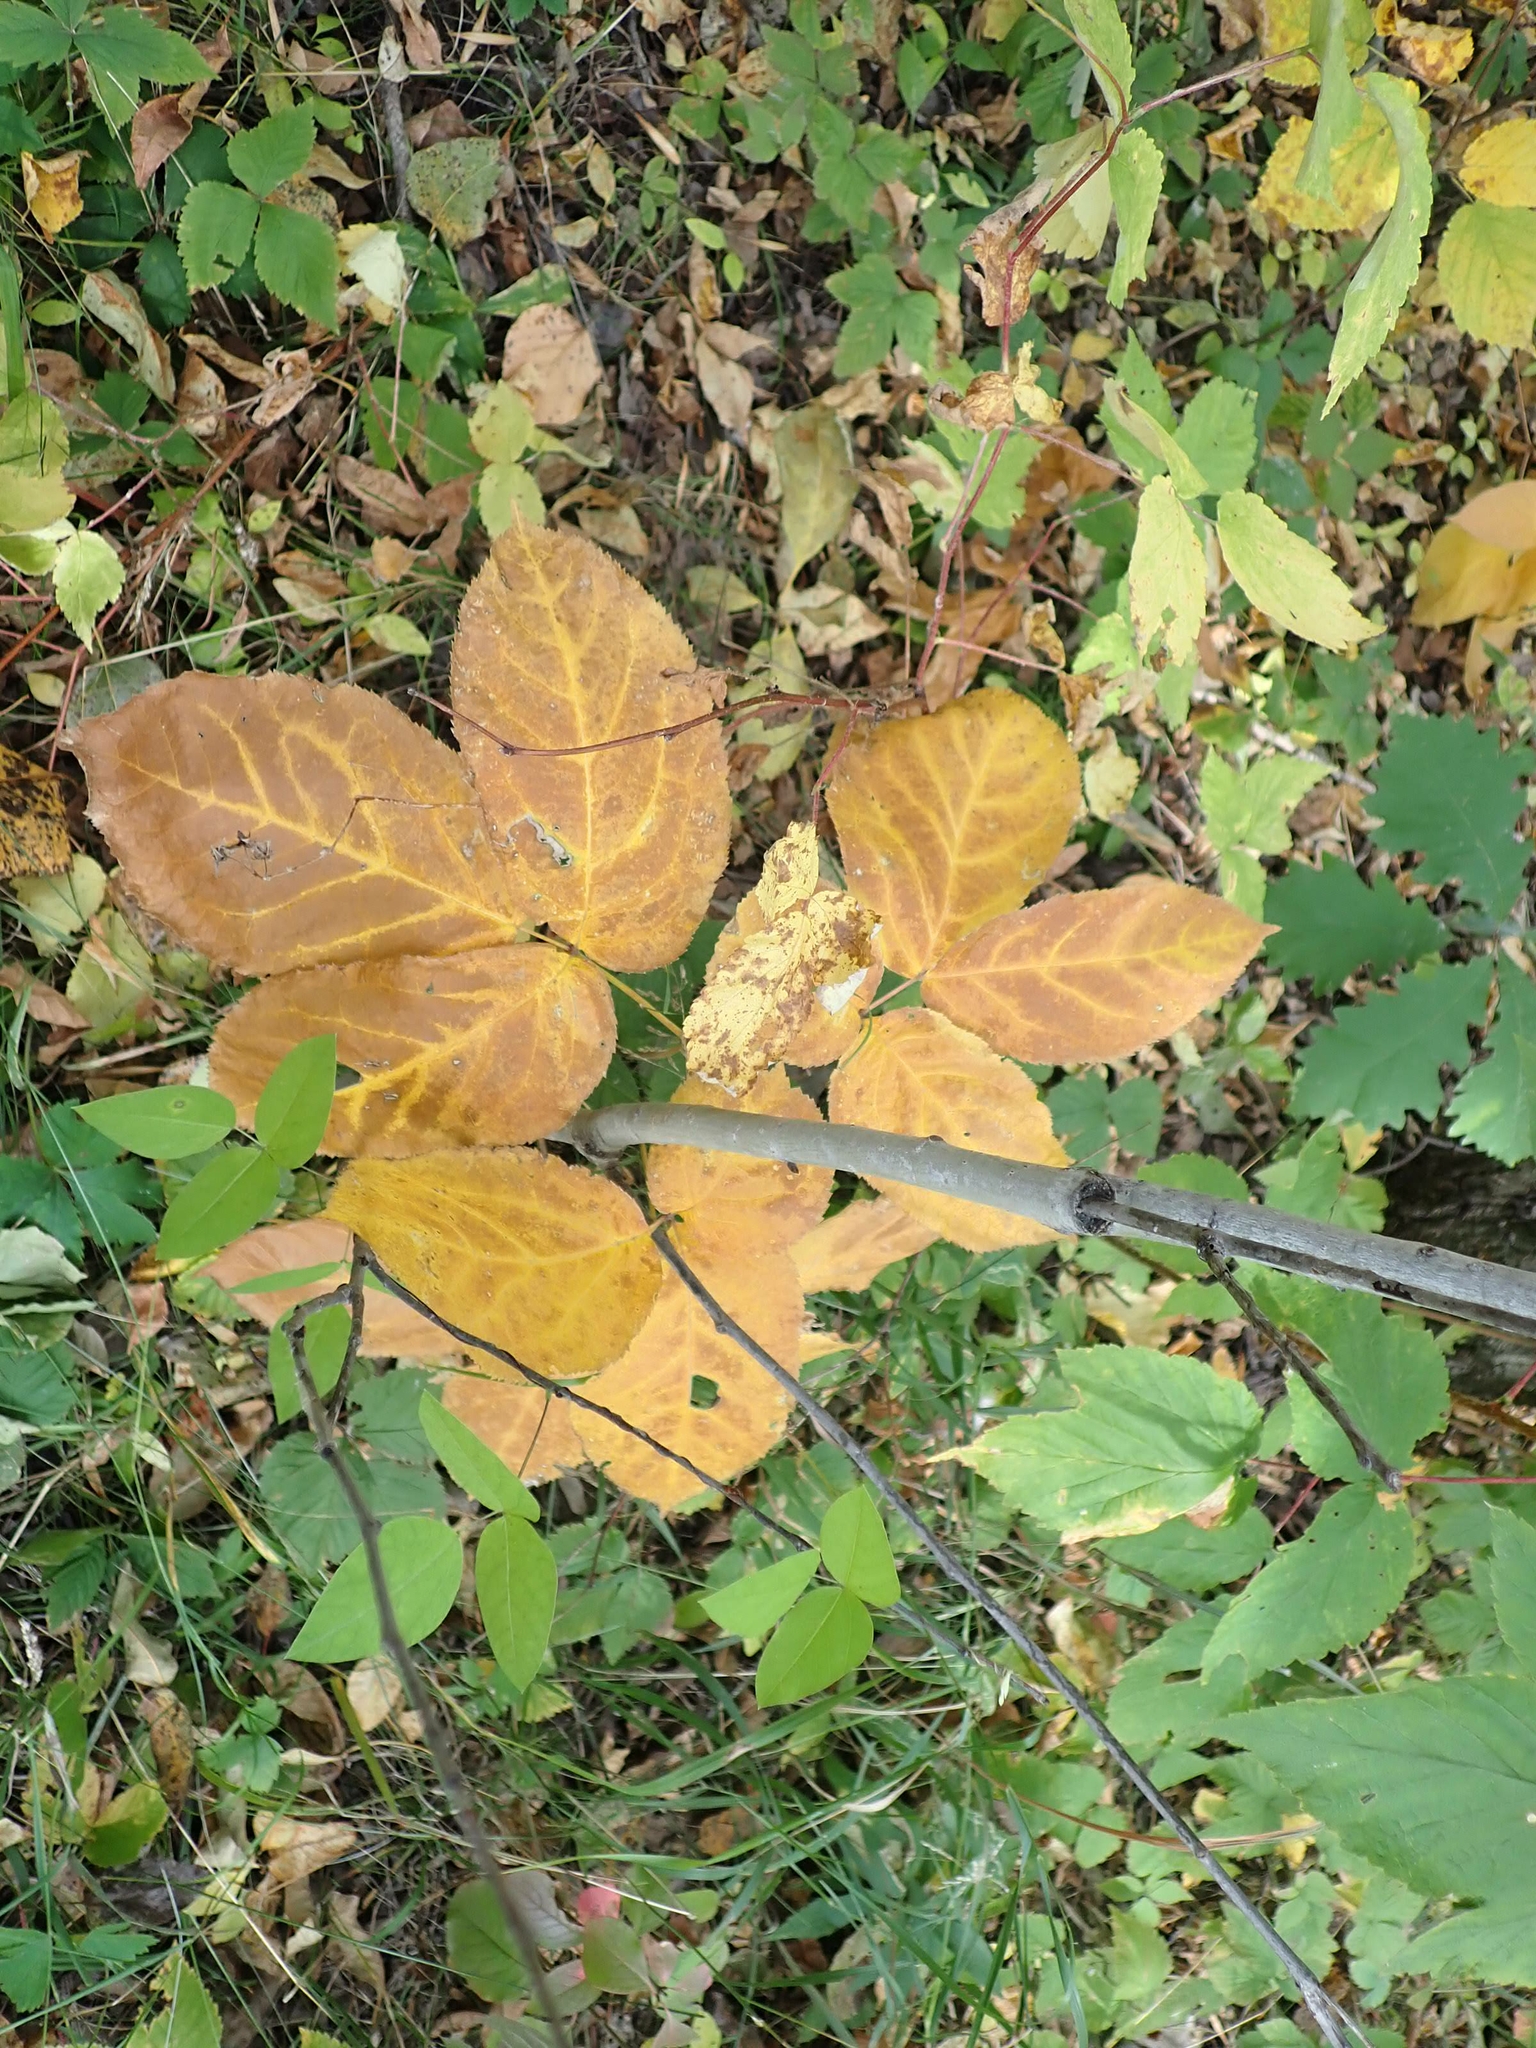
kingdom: Plantae
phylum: Tracheophyta
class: Magnoliopsida
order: Apiales
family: Araliaceae
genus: Aralia
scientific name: Aralia nudicaulis
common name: Wild sarsaparilla
